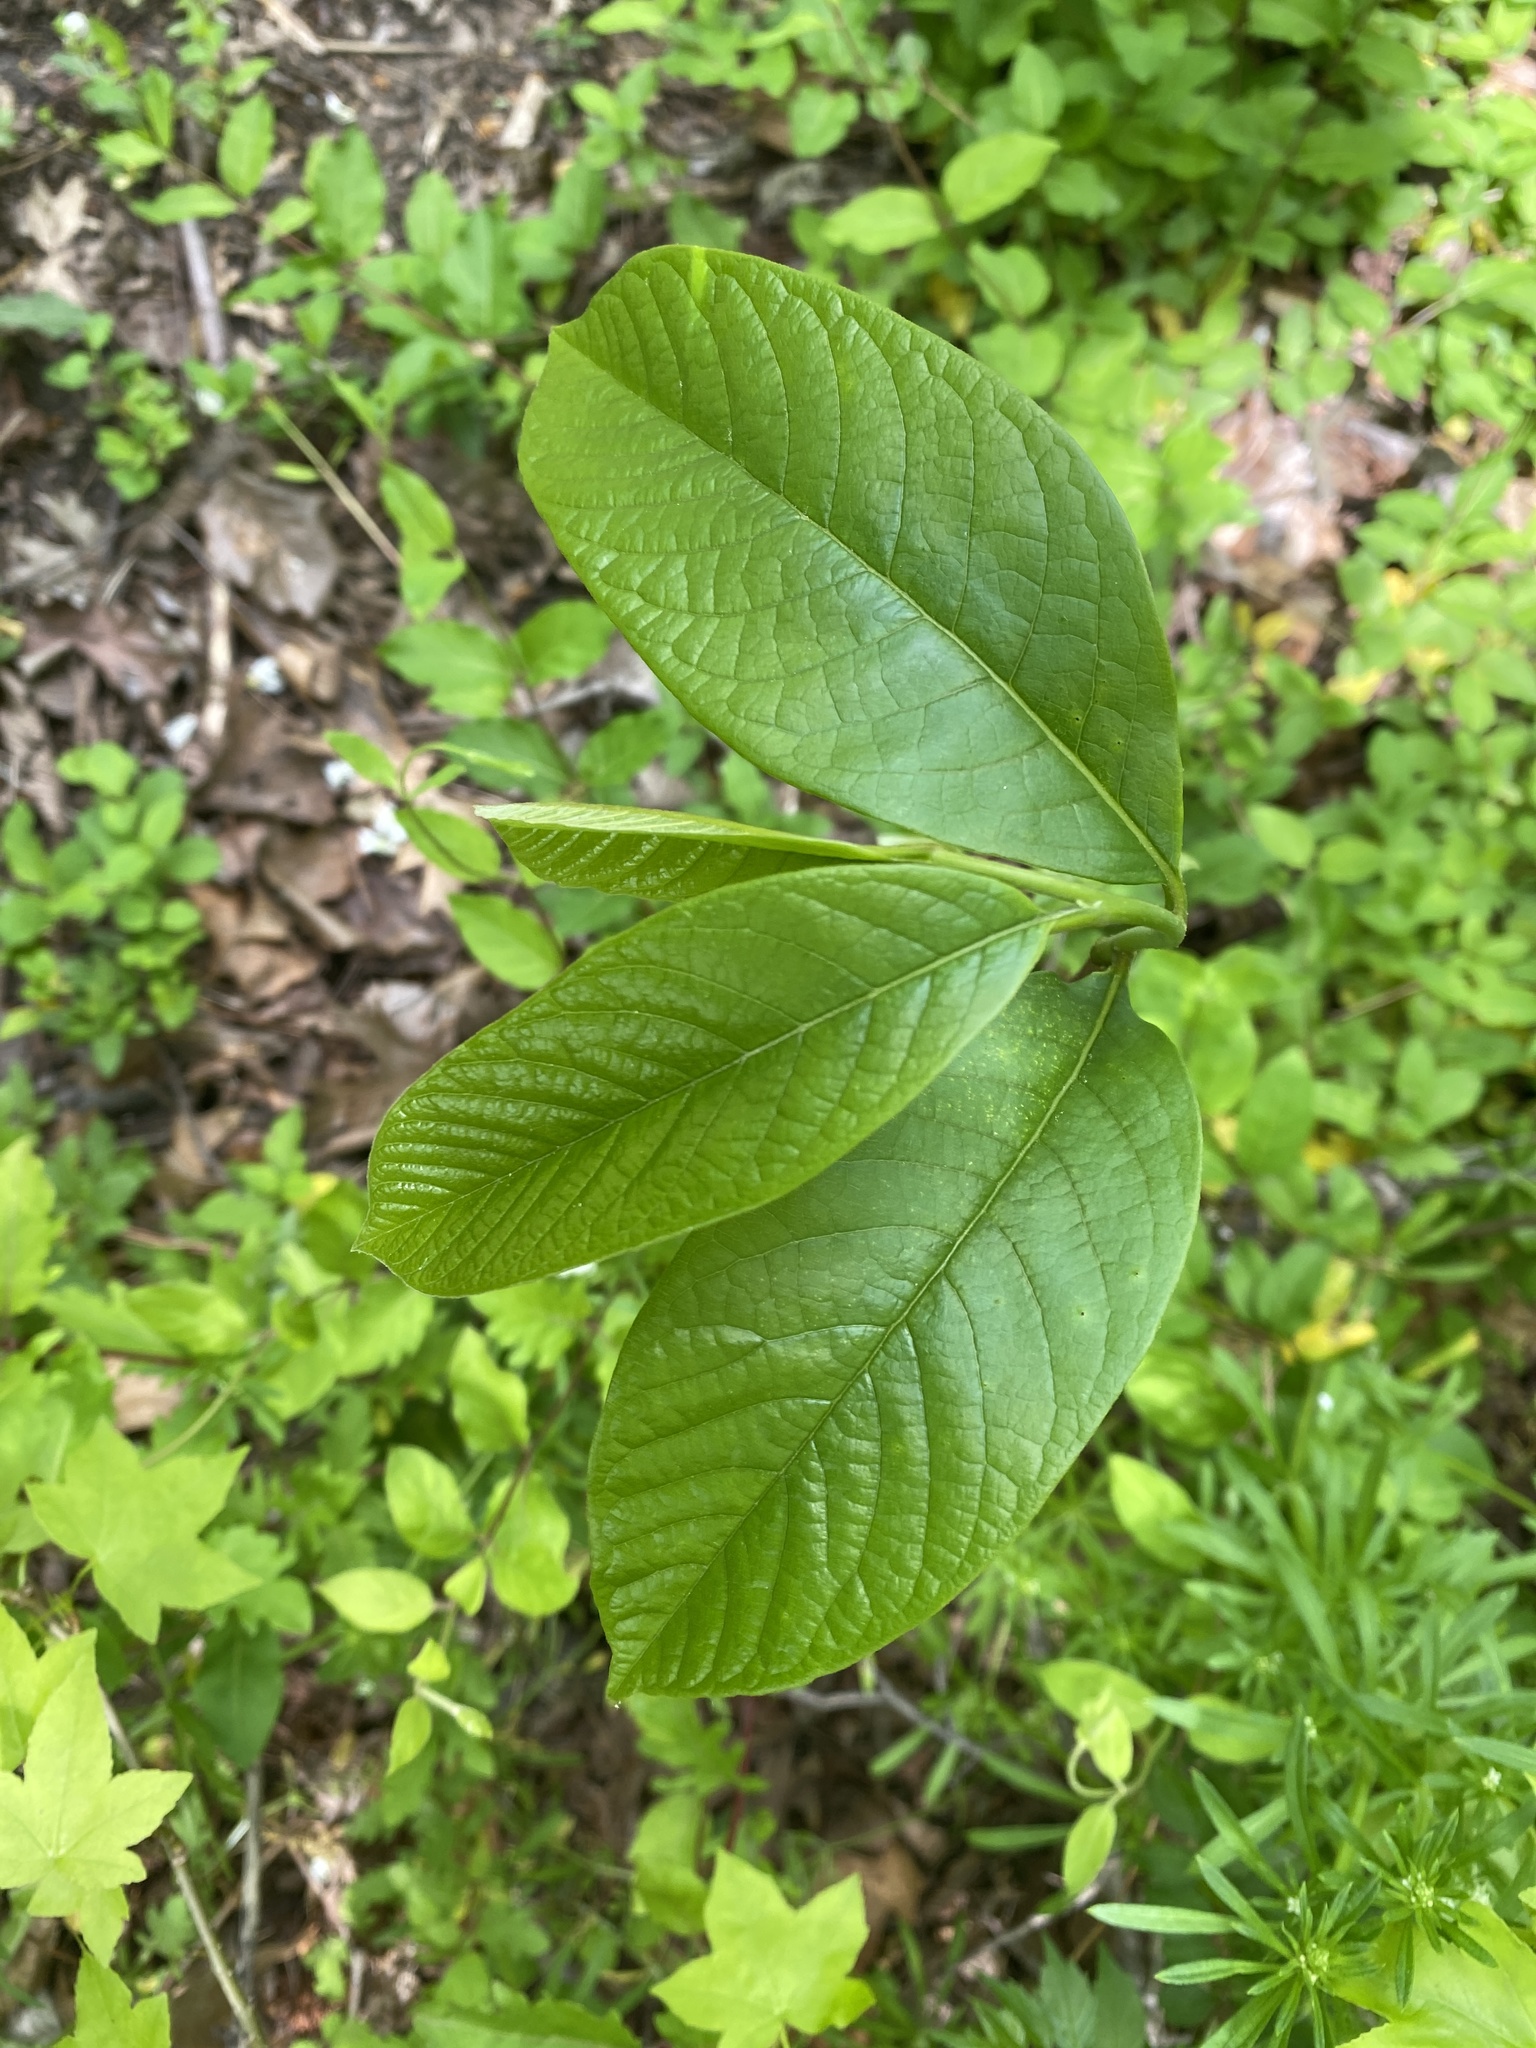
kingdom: Plantae
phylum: Tracheophyta
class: Magnoliopsida
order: Magnoliales
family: Annonaceae
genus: Asimina
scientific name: Asimina triloba
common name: Dog-banana
